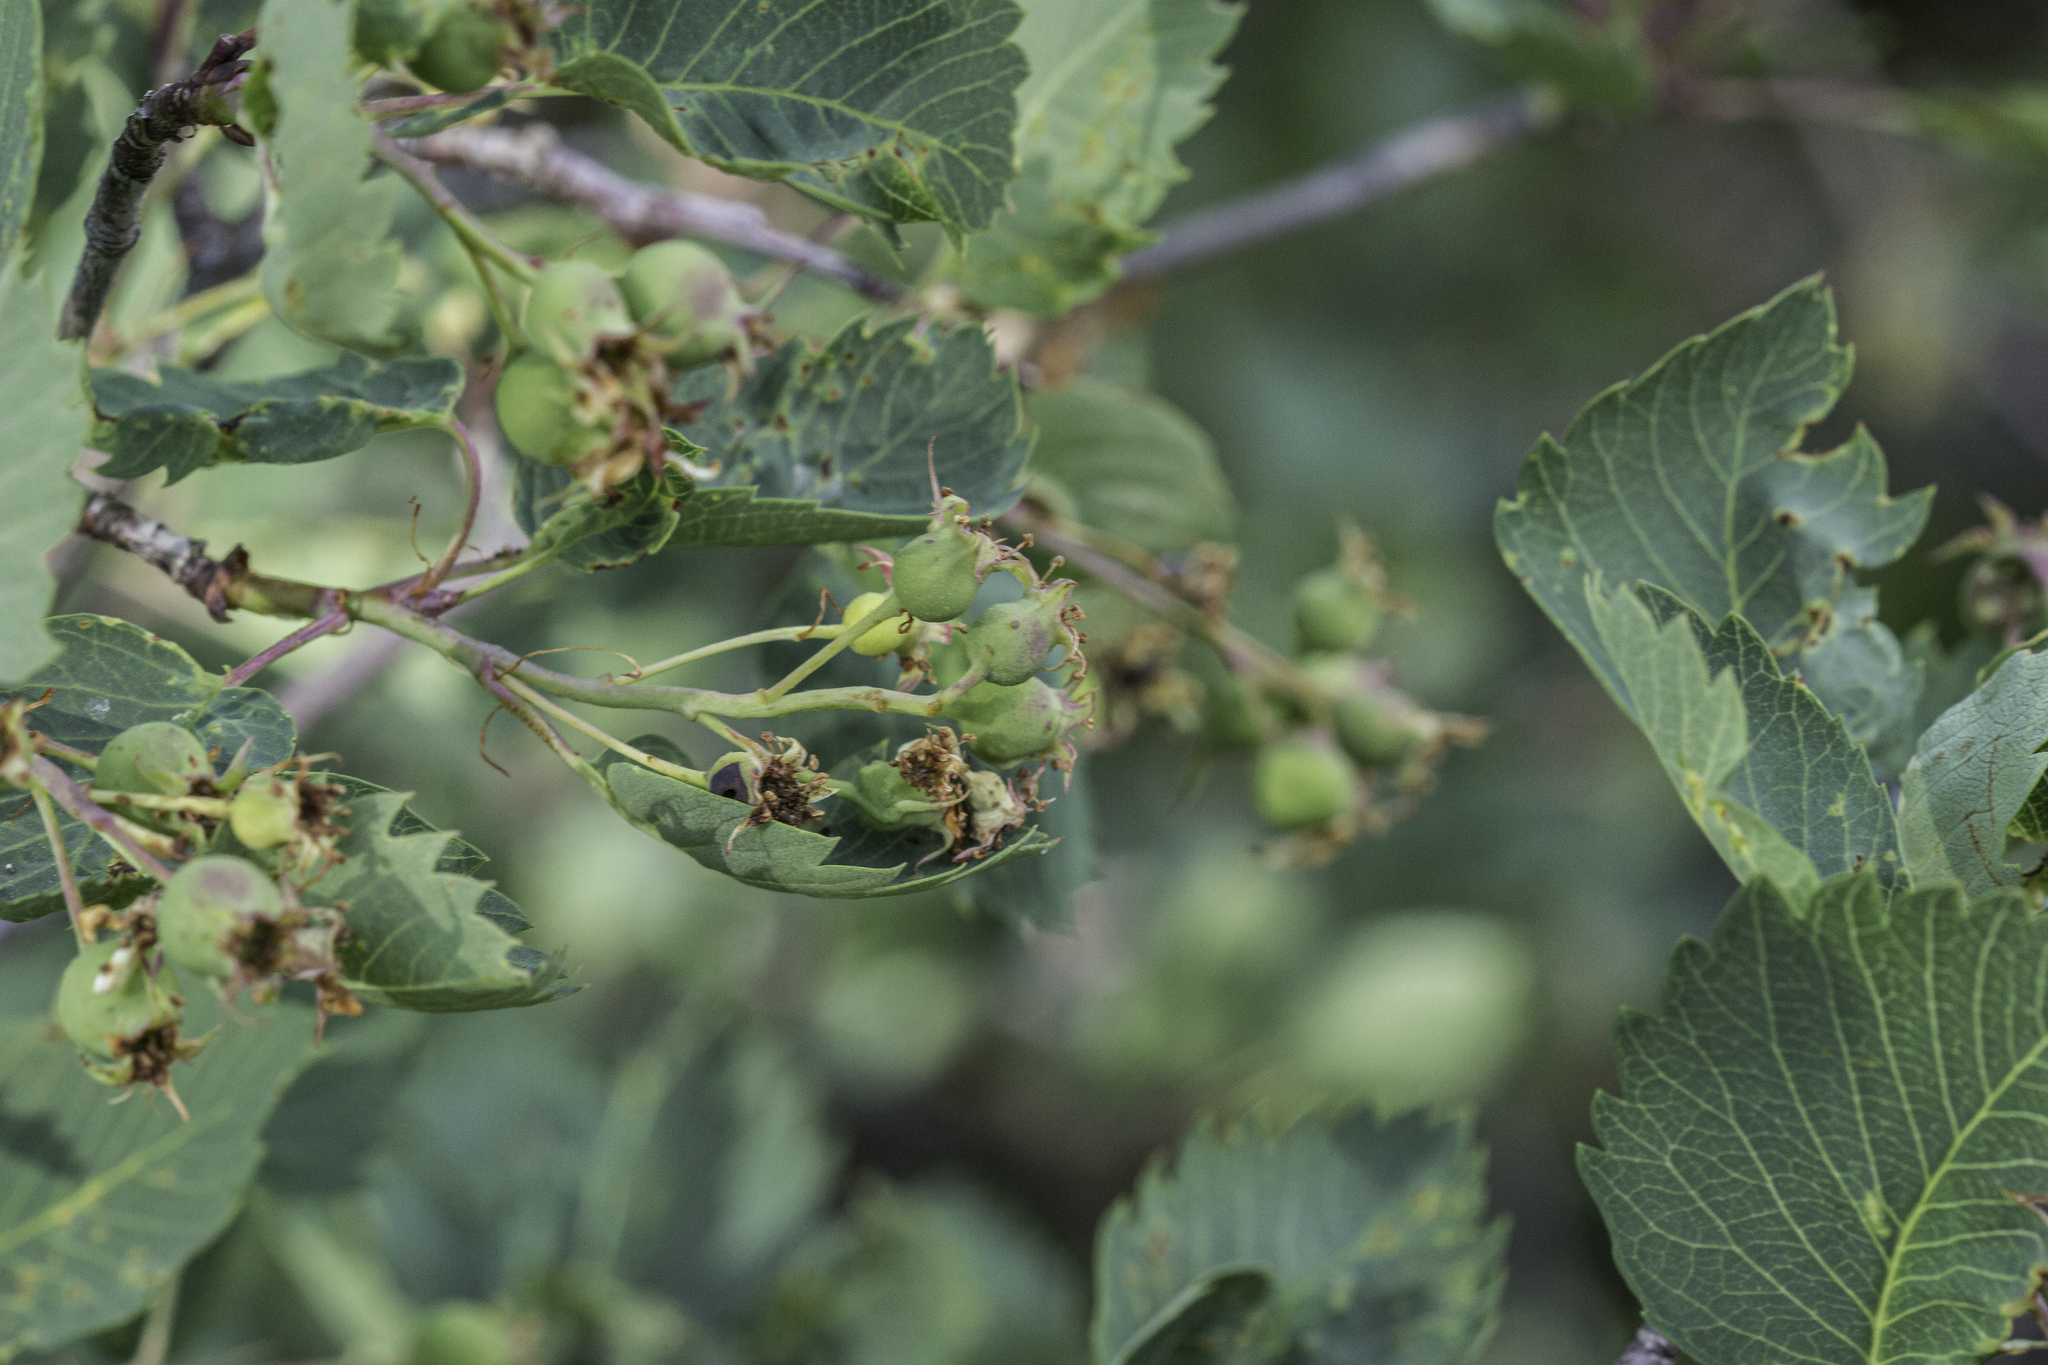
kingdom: Plantae
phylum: Tracheophyta
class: Magnoliopsida
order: Rosales
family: Rosaceae
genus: Amelanchier
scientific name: Amelanchier alnifolia
